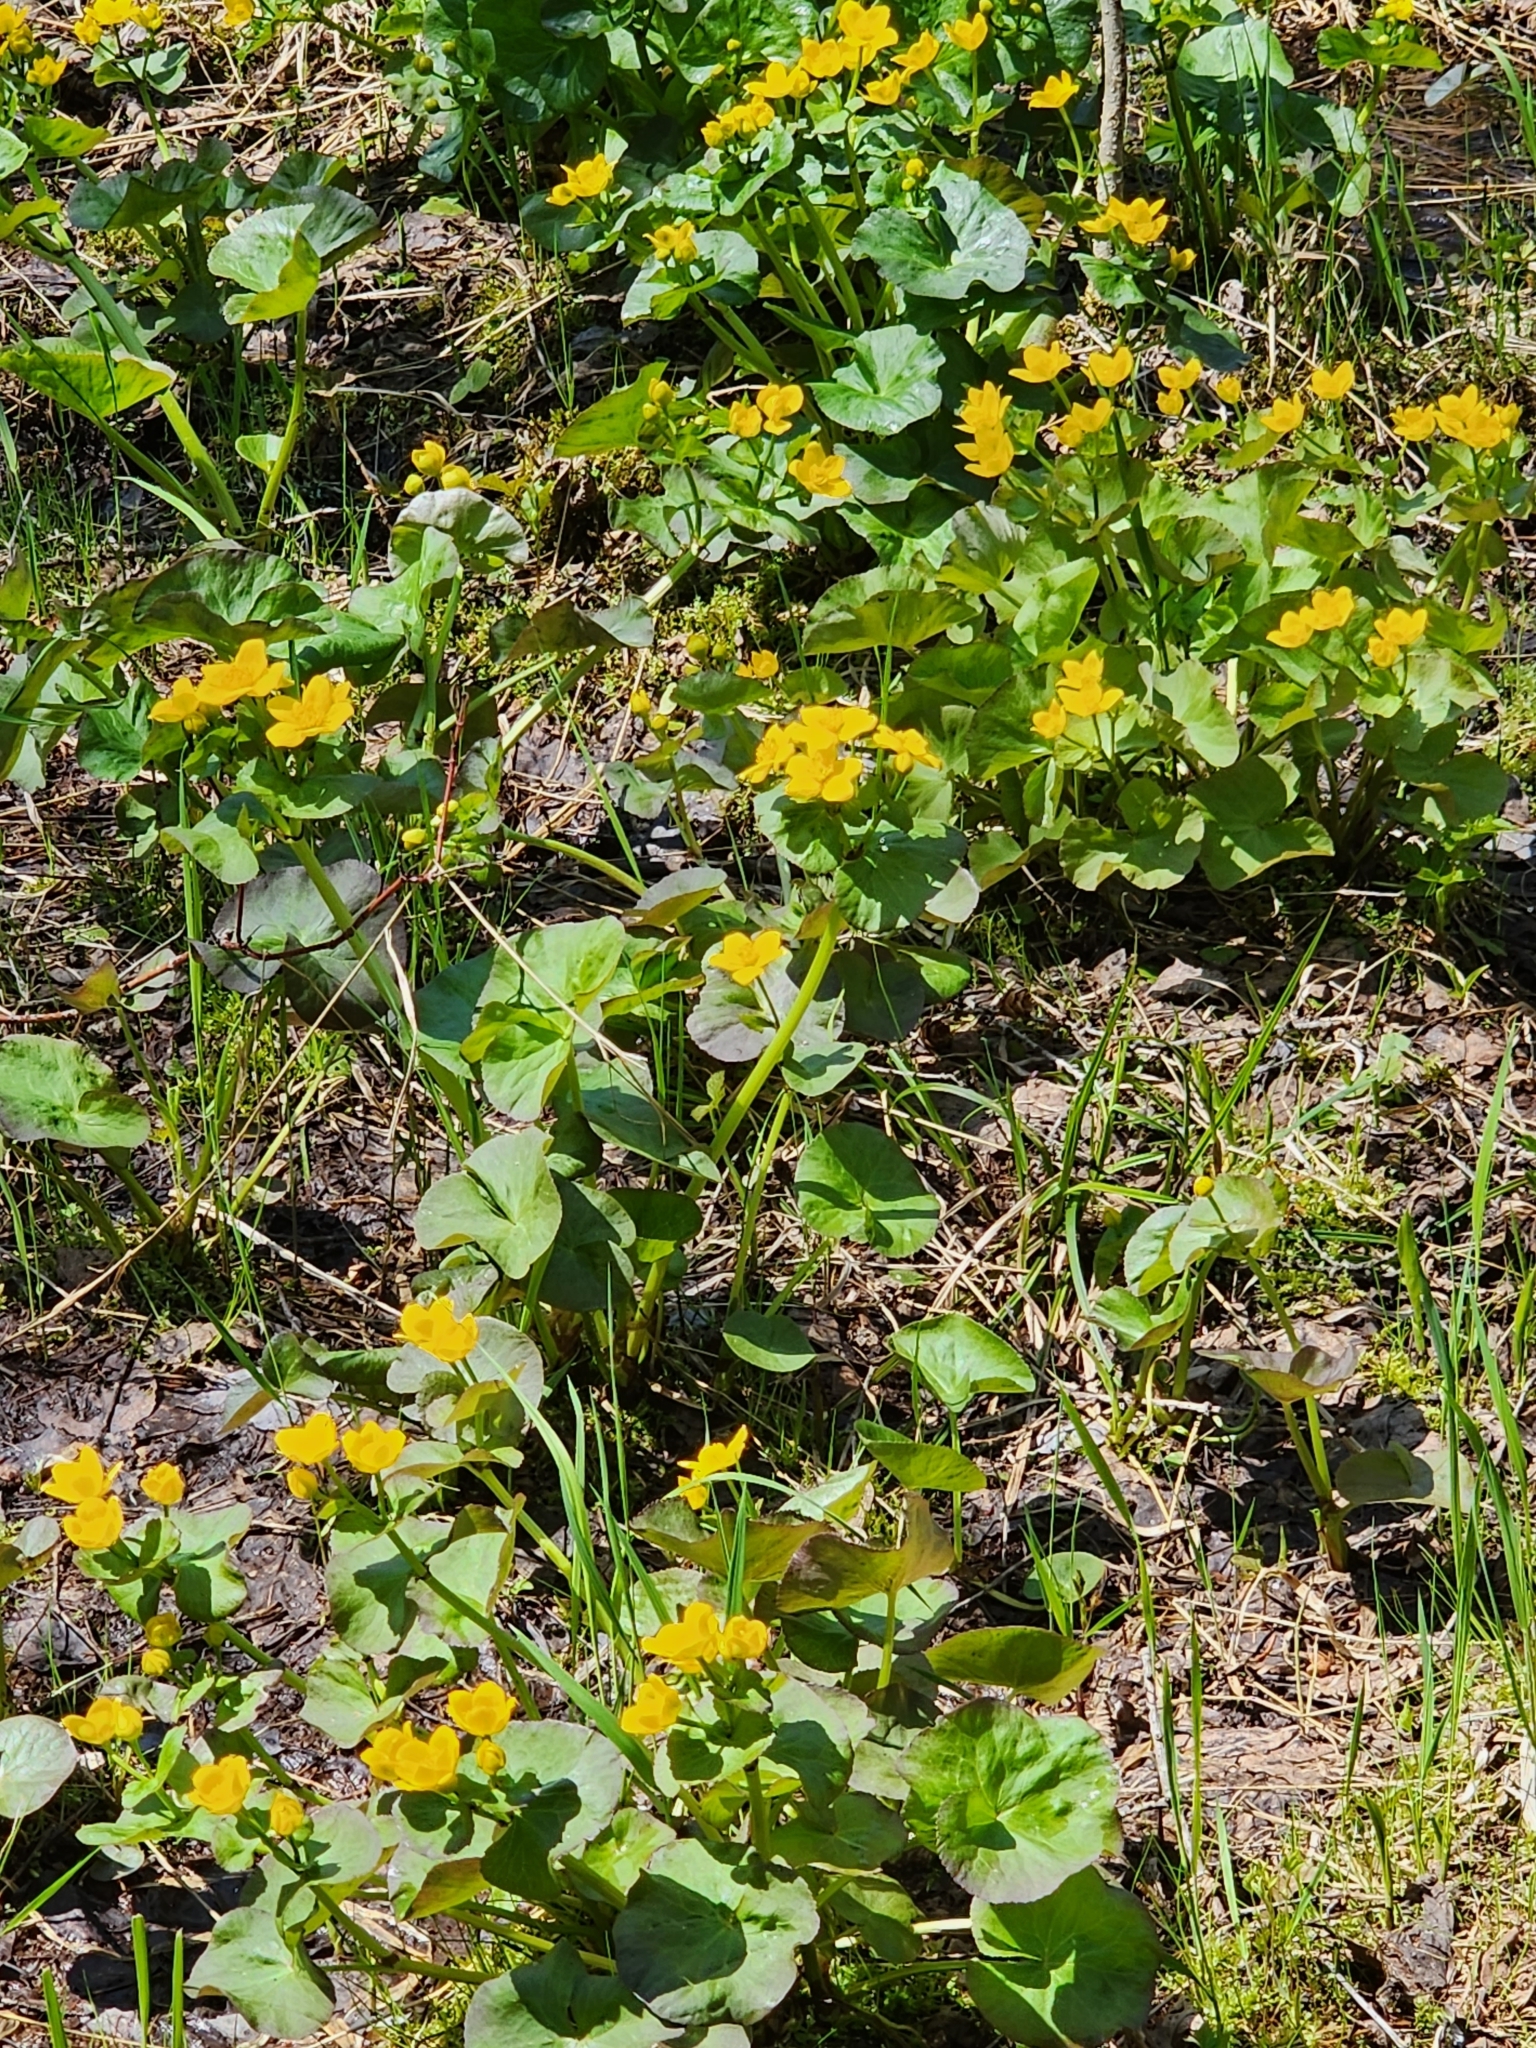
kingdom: Plantae
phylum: Tracheophyta
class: Magnoliopsida
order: Ranunculales
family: Ranunculaceae
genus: Caltha
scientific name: Caltha palustris
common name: Marsh marigold
